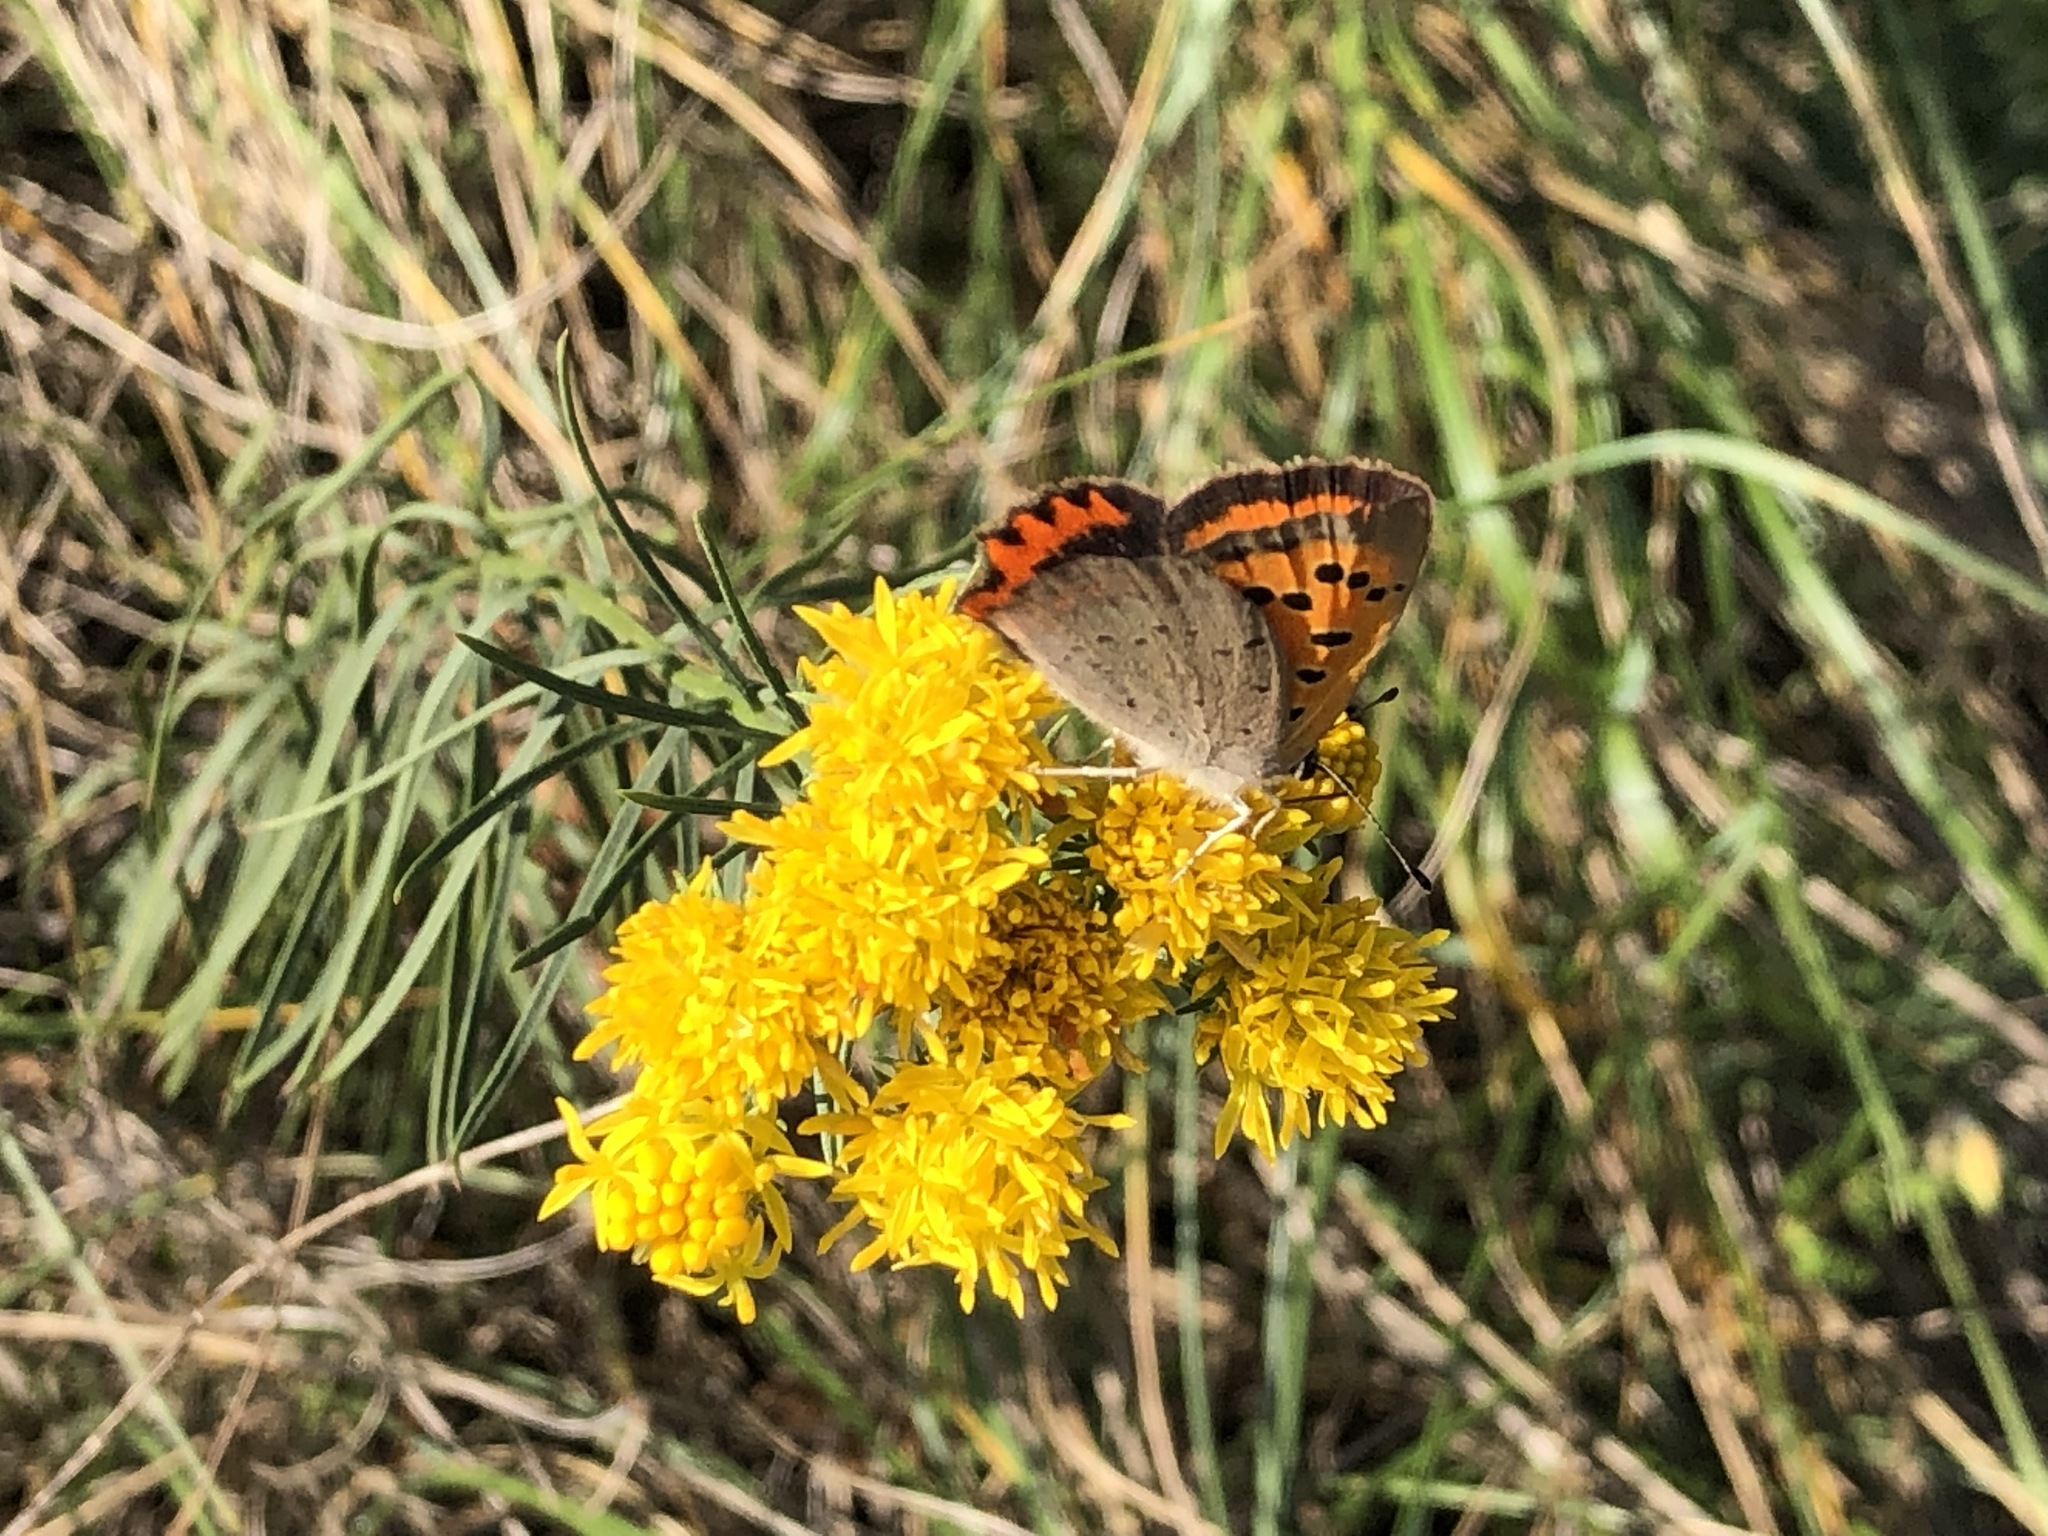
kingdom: Animalia
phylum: Arthropoda
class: Insecta
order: Lepidoptera
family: Lycaenidae
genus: Lycaena
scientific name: Lycaena phlaeas
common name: Small copper
